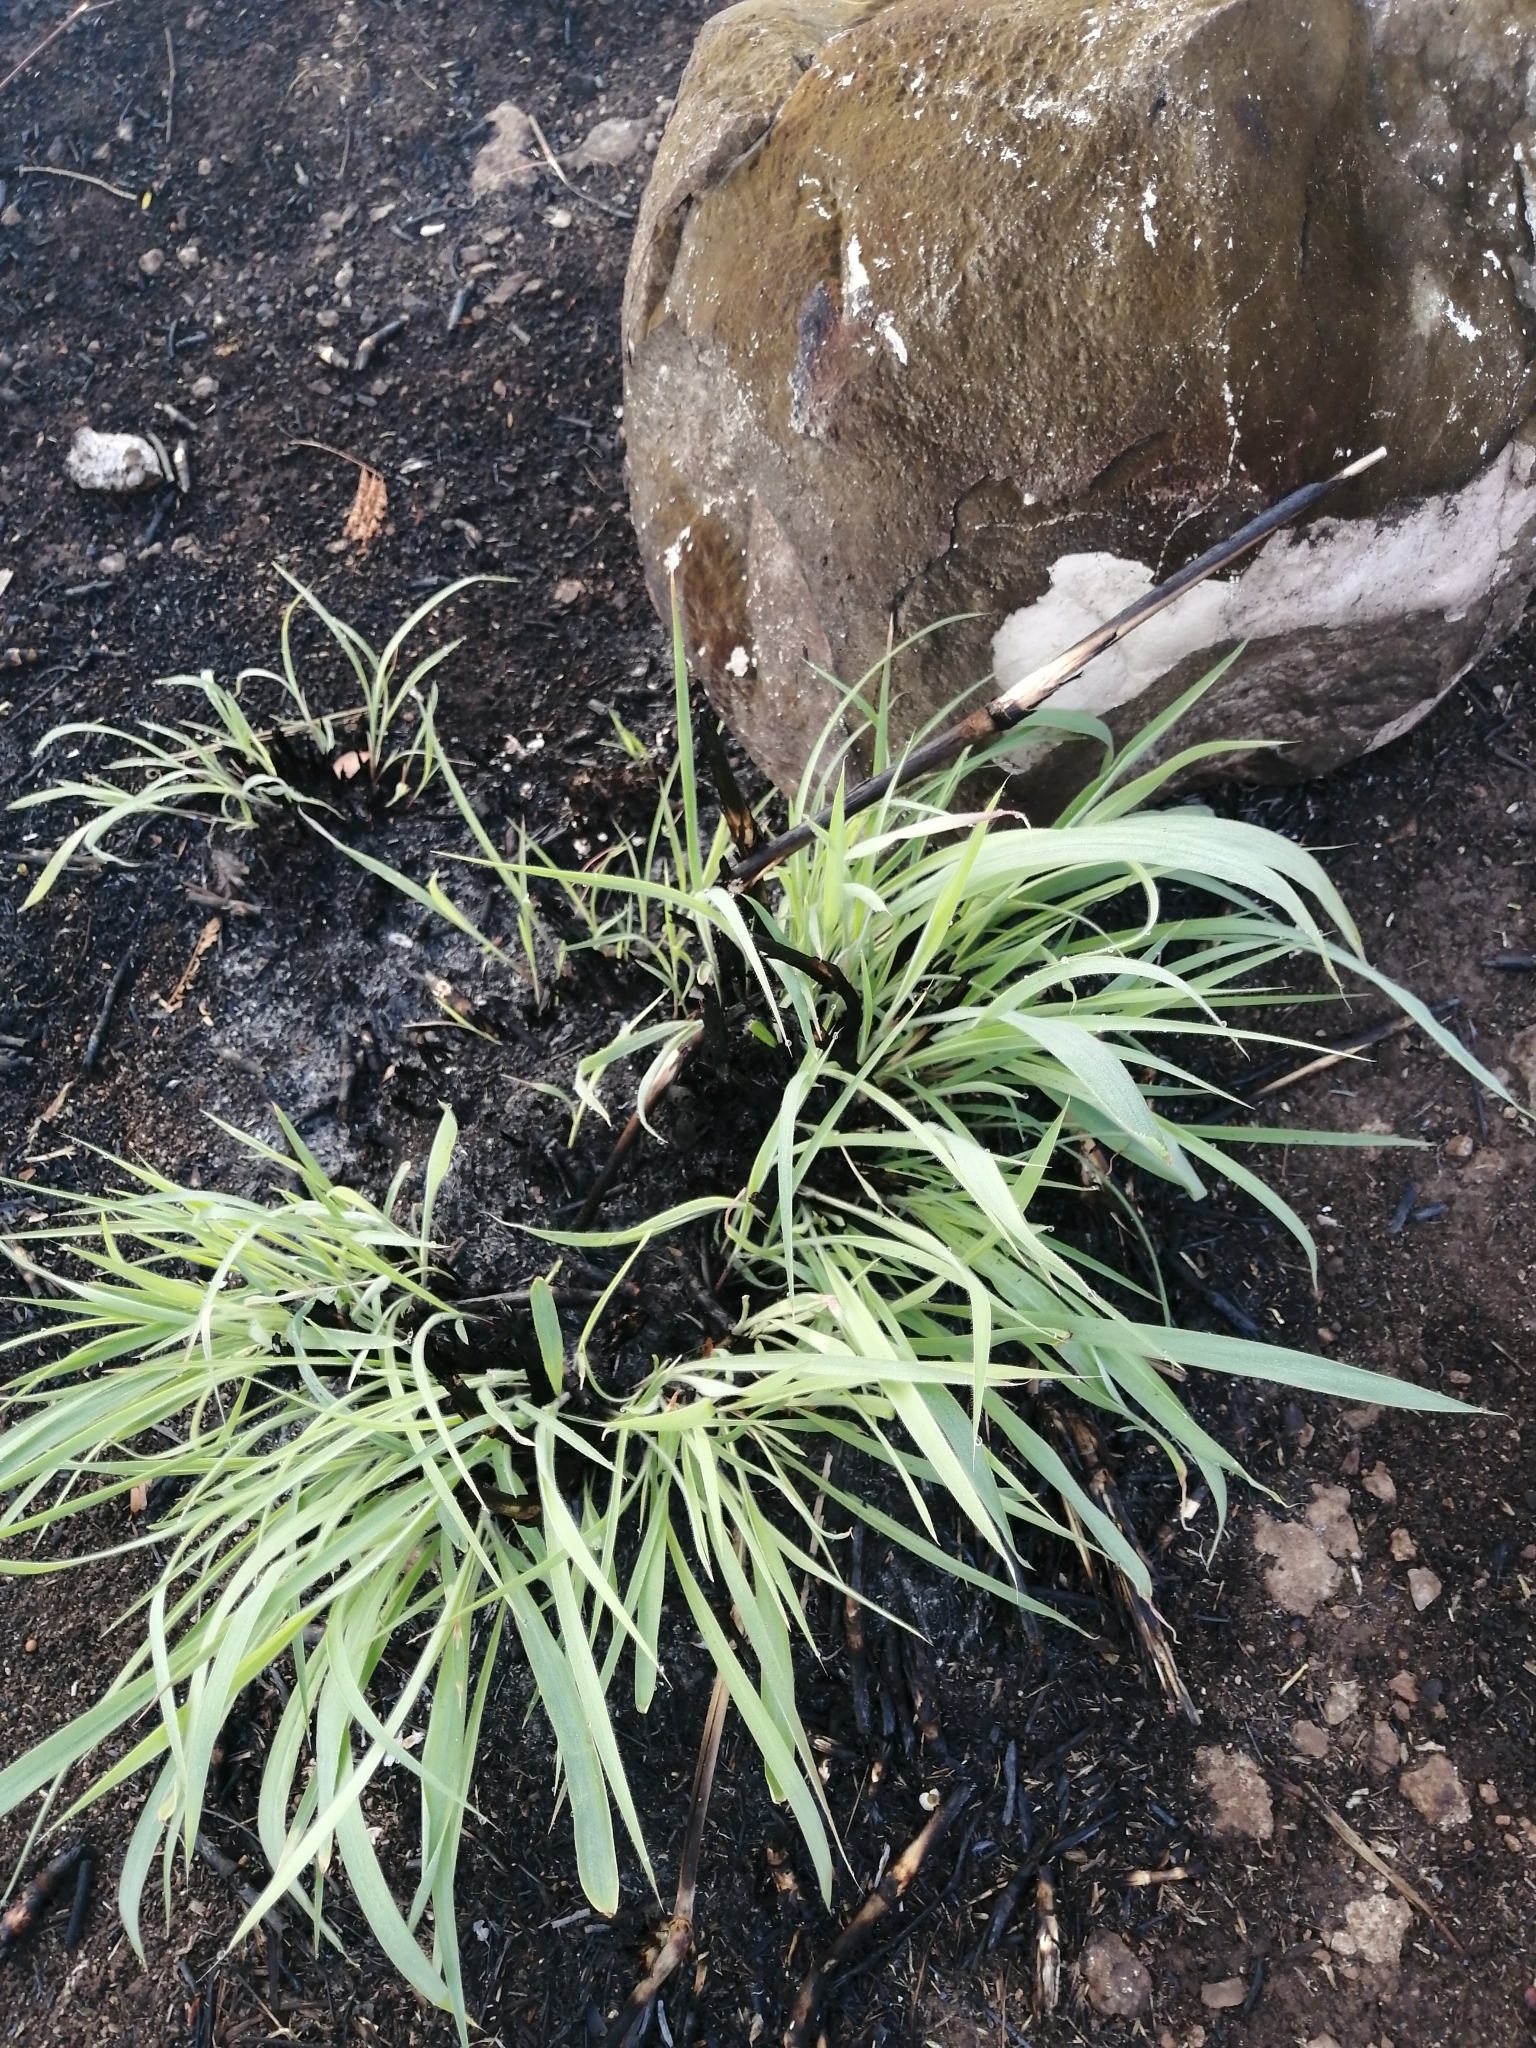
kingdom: Plantae
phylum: Tracheophyta
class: Liliopsida
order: Poales
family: Poaceae
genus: Cymbopogon
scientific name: Cymbopogon citratus
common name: Lemon grass
